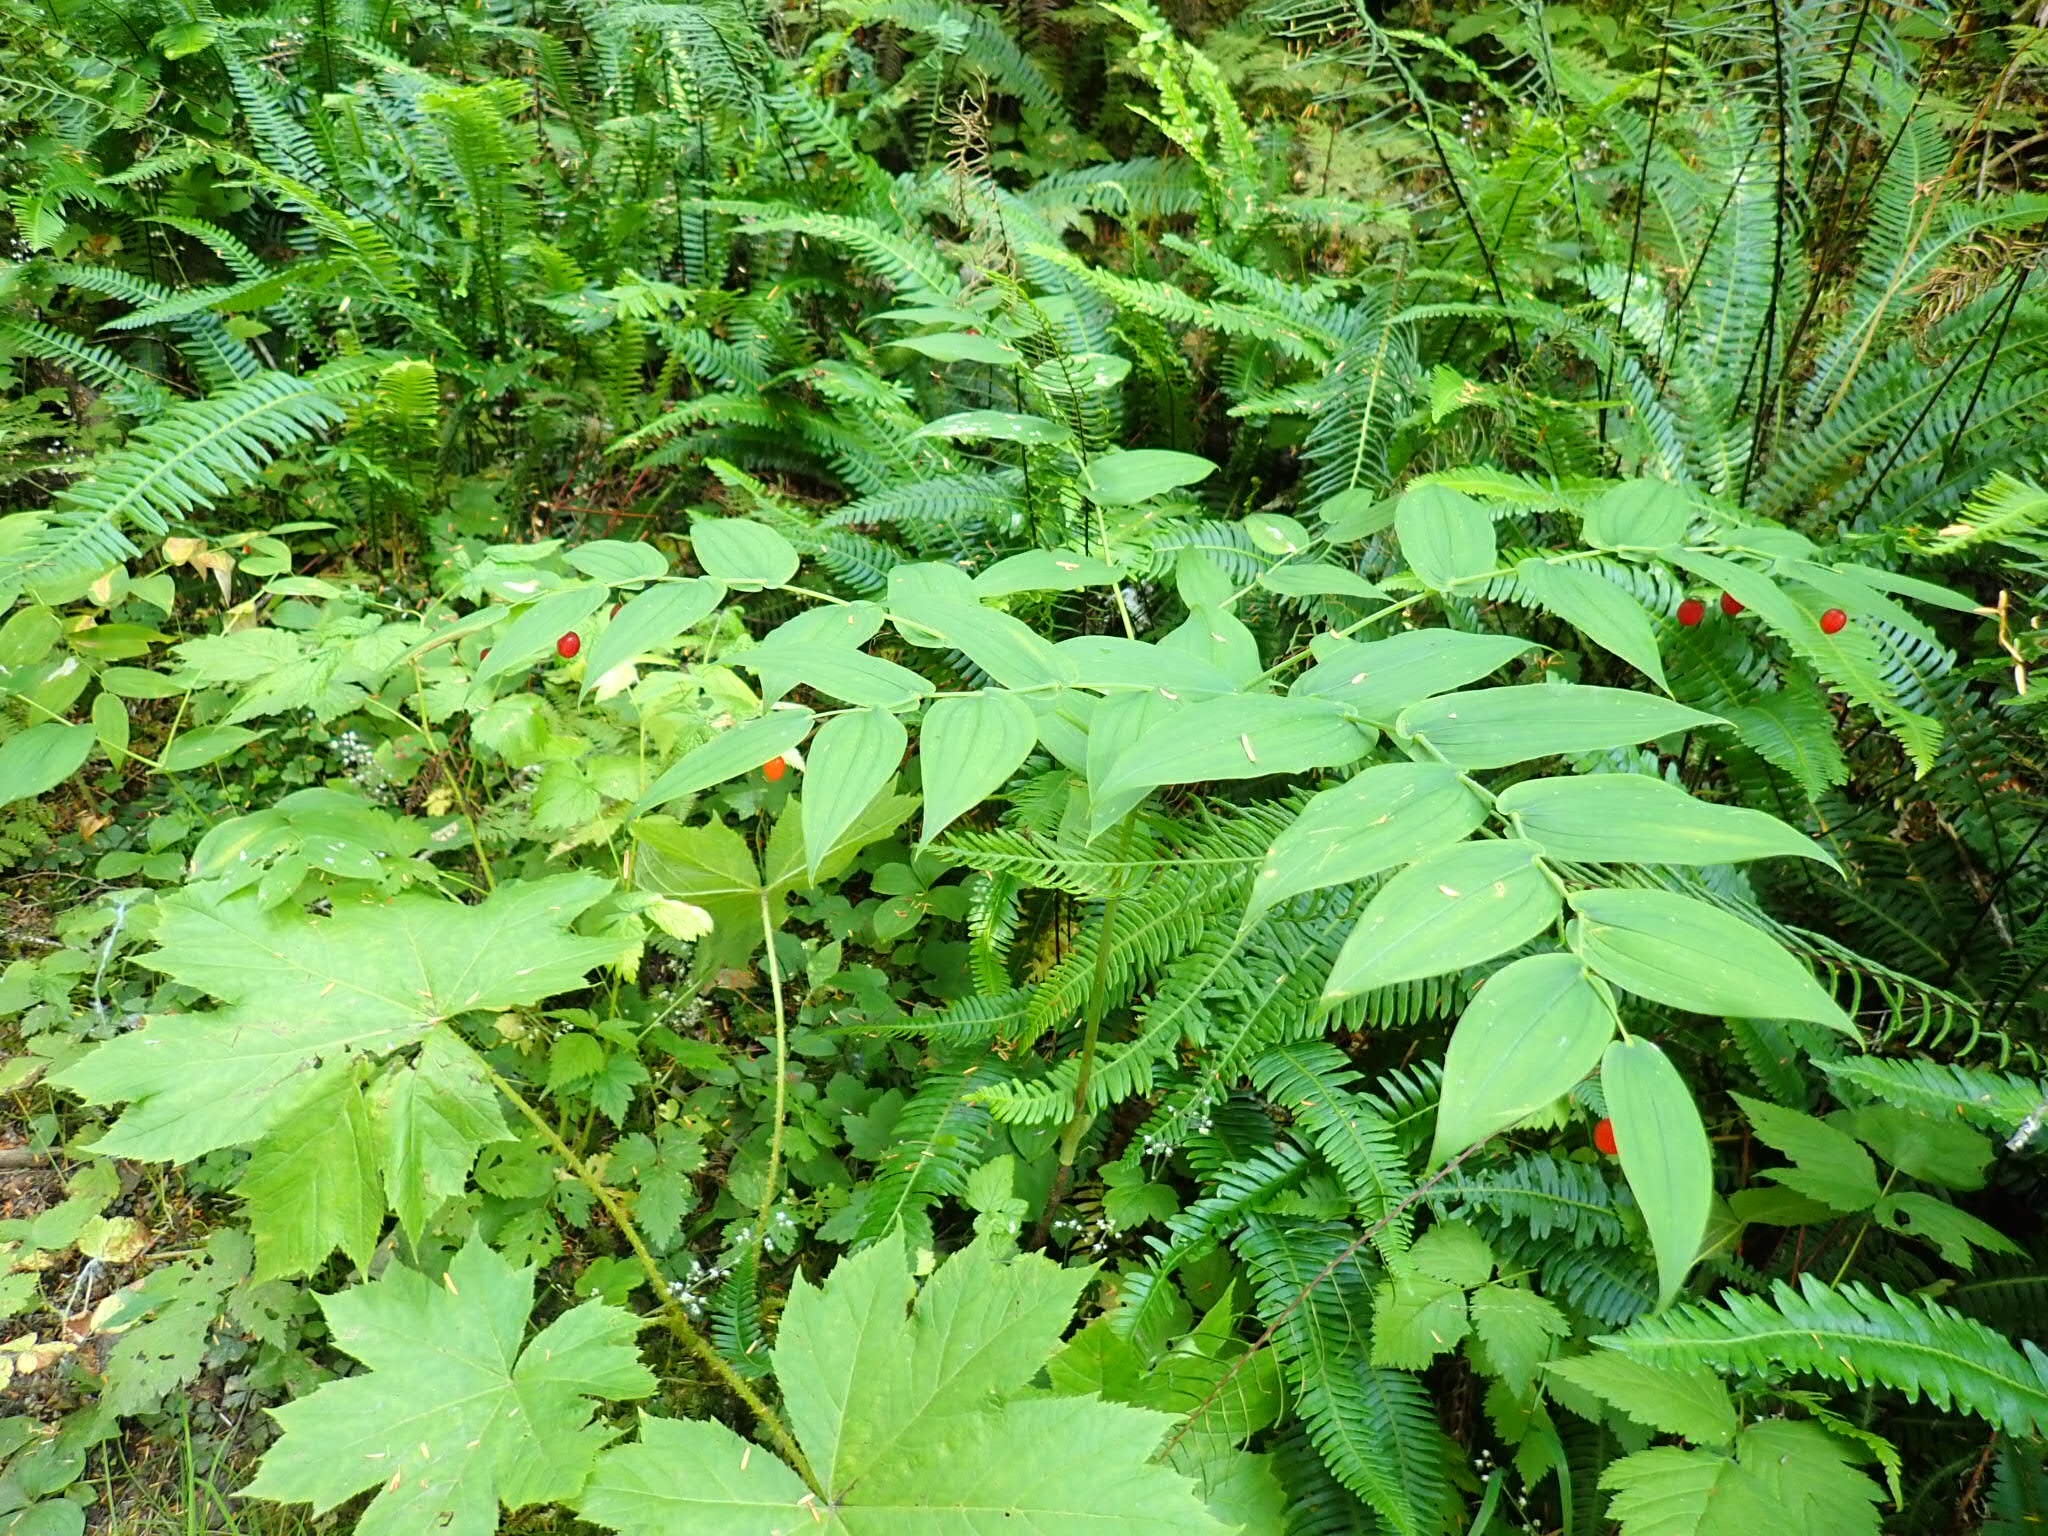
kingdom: Plantae
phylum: Tracheophyta
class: Liliopsida
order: Liliales
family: Liliaceae
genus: Streptopus
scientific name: Streptopus amplexifolius
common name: Clasp twisted stalk
